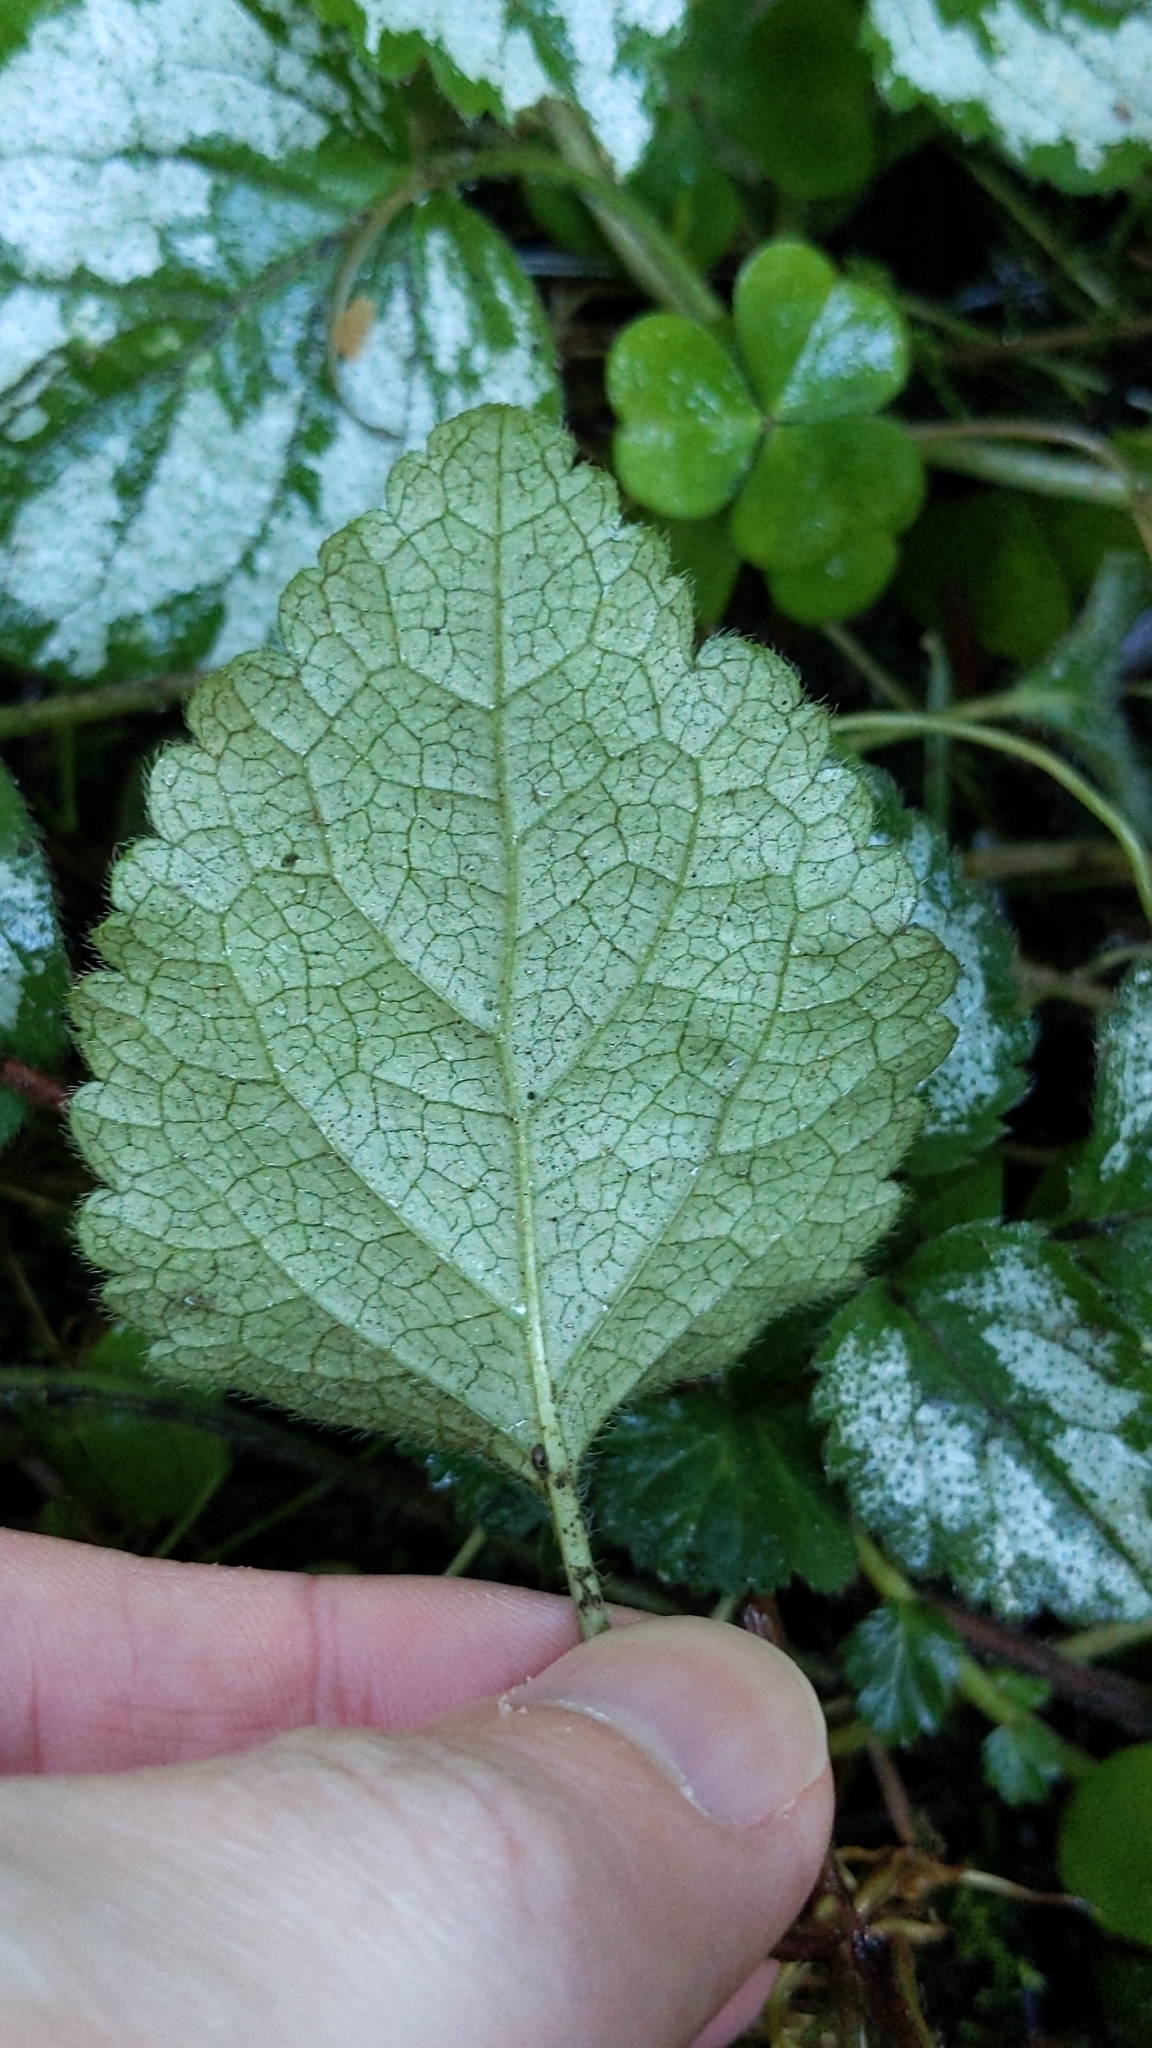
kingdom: Plantae
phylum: Tracheophyta
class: Magnoliopsida
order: Lamiales
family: Lamiaceae
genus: Lamium
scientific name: Lamium galeobdolon
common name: Yellow archangel
